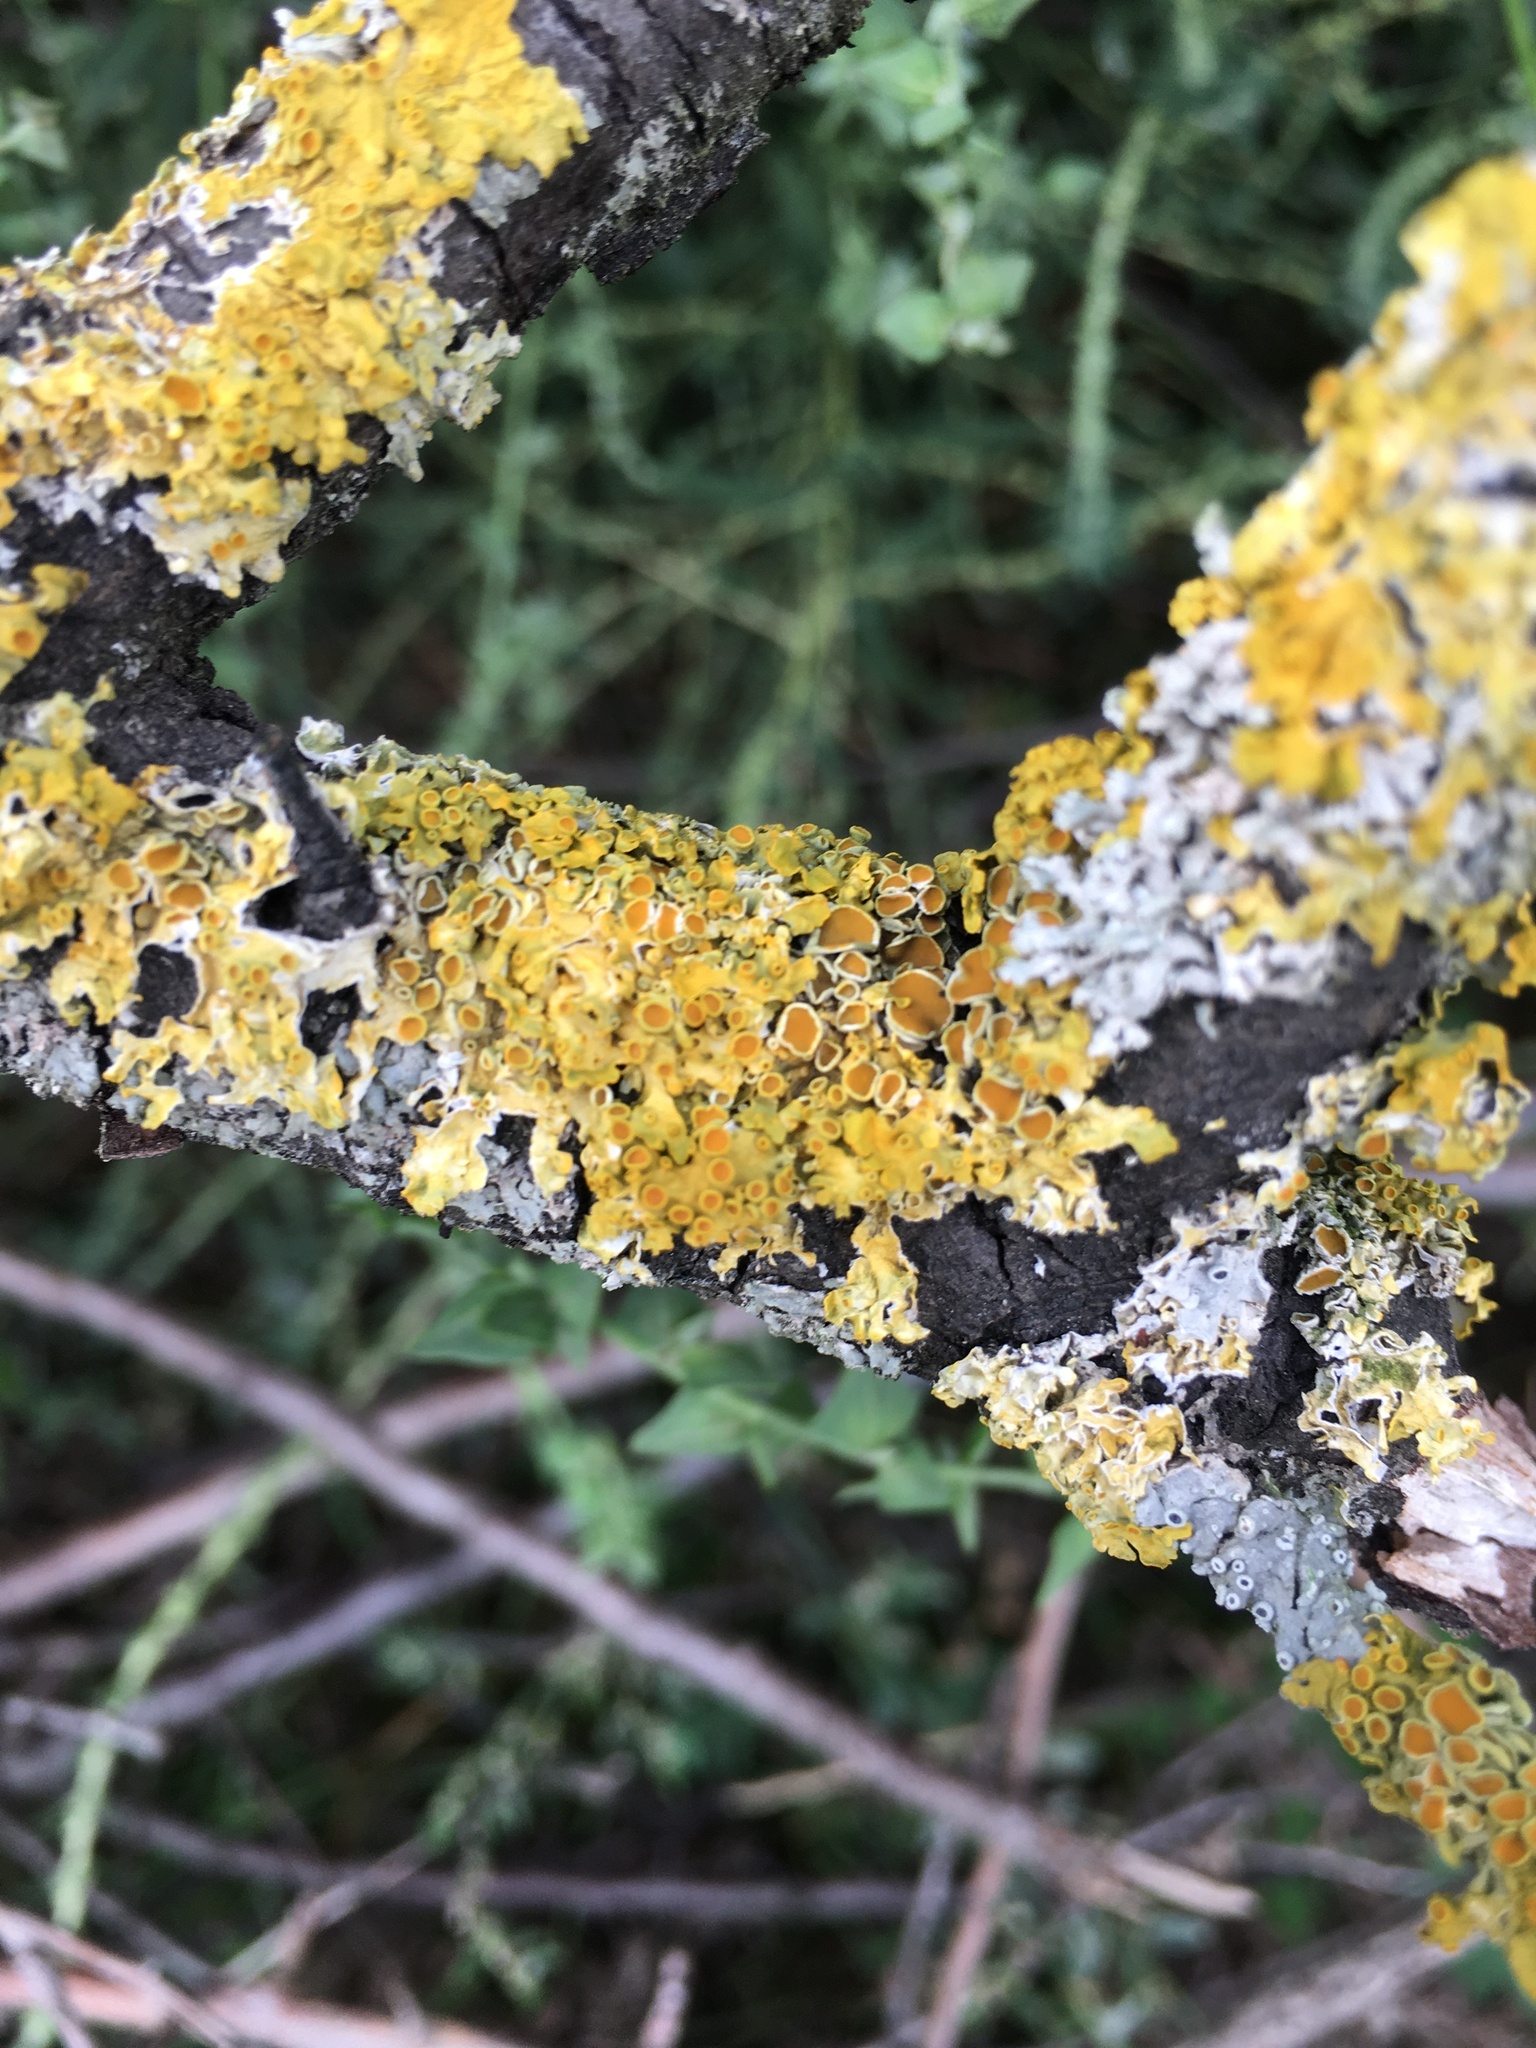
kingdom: Fungi
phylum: Ascomycota
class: Lecanoromycetes
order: Teloschistales
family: Teloschistaceae
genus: Xanthoria
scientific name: Xanthoria parietina
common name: Common orange lichen
